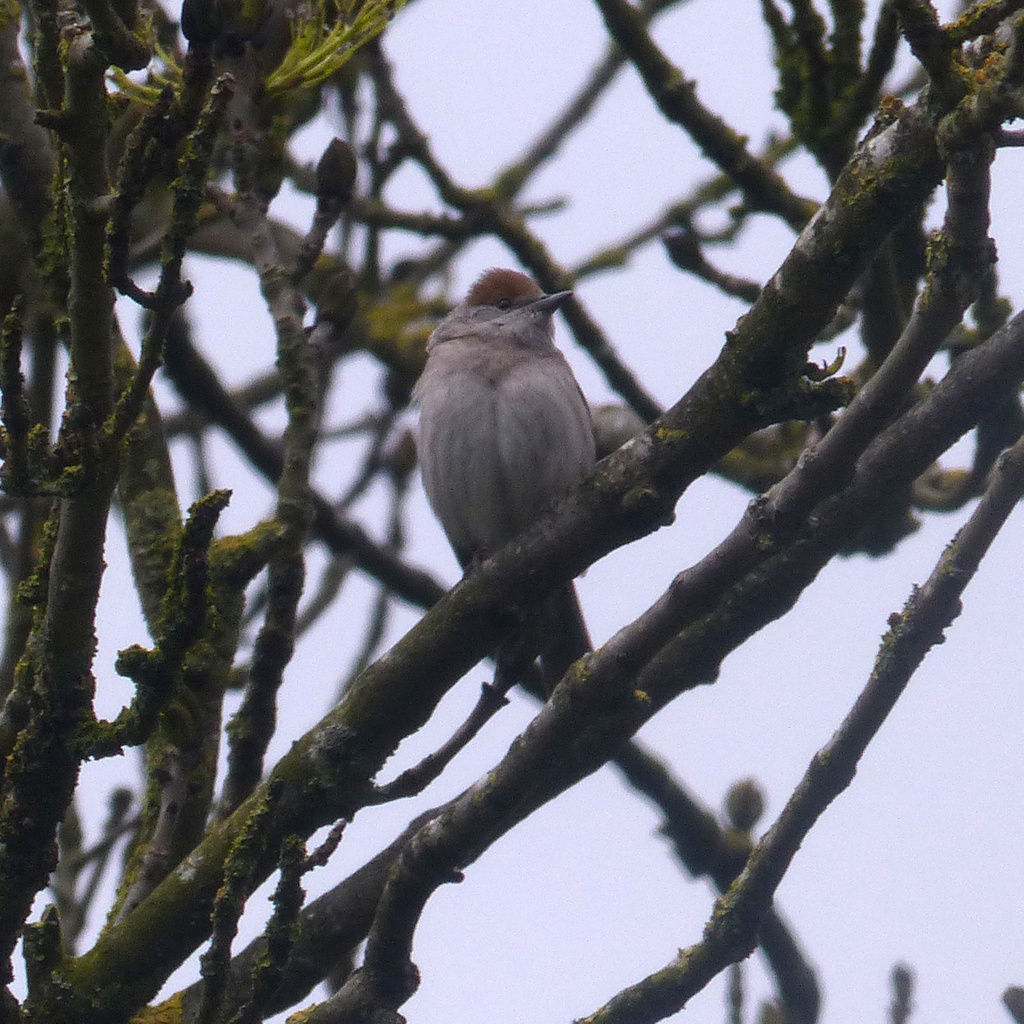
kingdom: Animalia
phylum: Chordata
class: Aves
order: Passeriformes
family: Sylviidae
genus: Sylvia
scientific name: Sylvia atricapilla
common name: Eurasian blackcap
